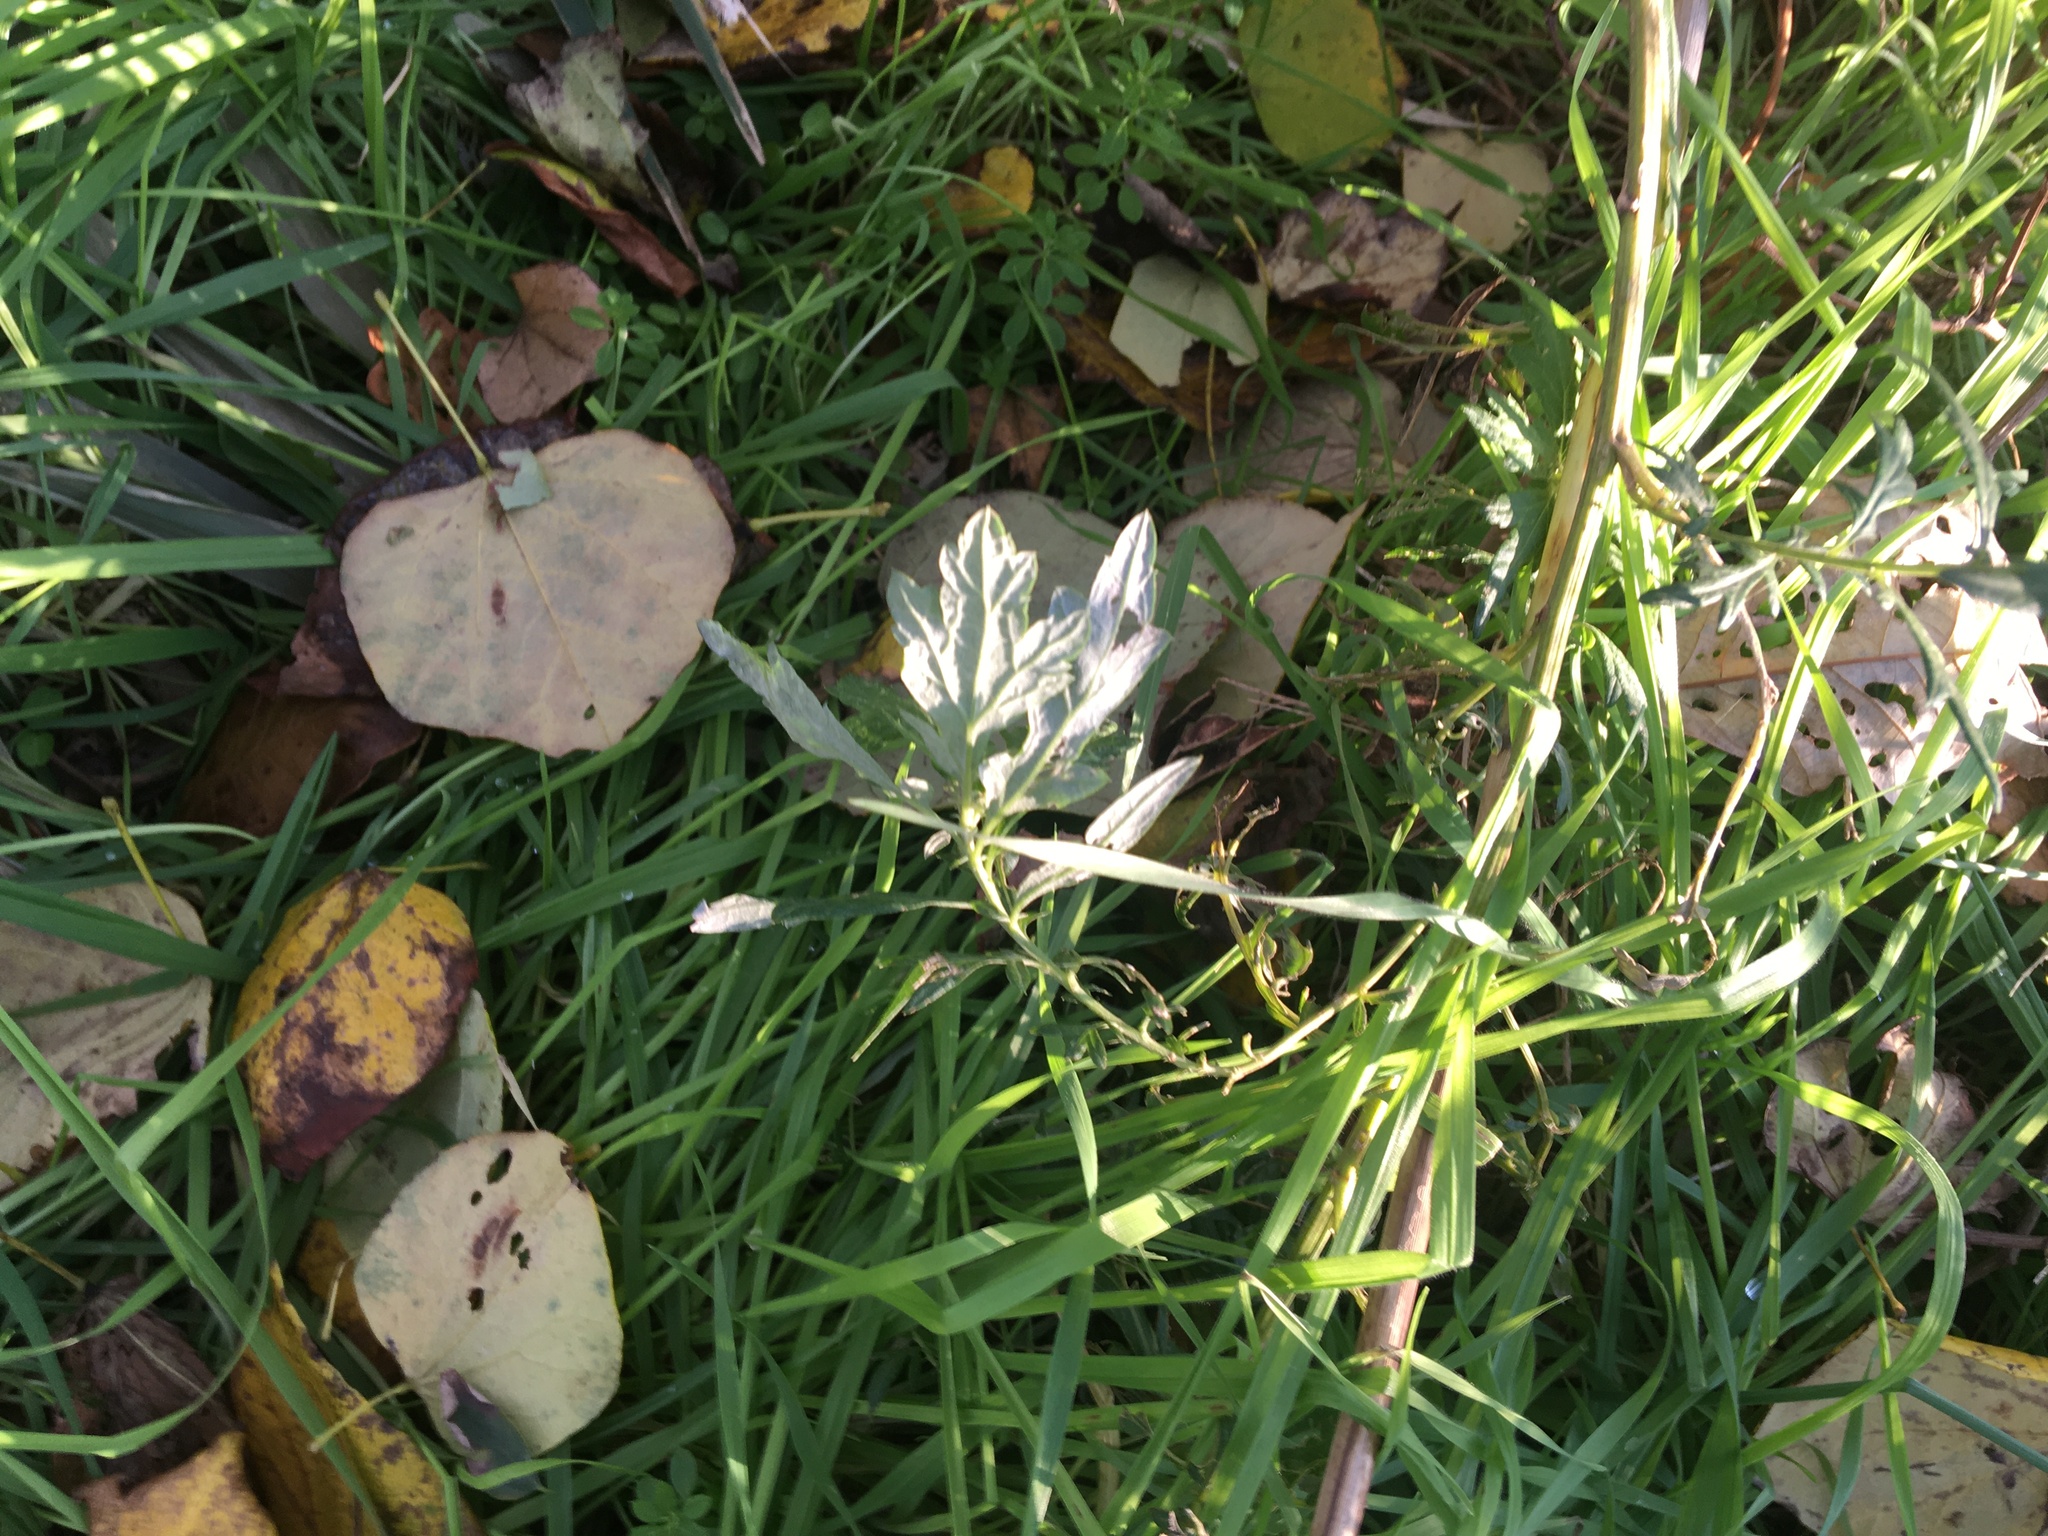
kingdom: Plantae
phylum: Tracheophyta
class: Magnoliopsida
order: Asterales
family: Asteraceae
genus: Artemisia
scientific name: Artemisia vulgaris
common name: Mugwort
